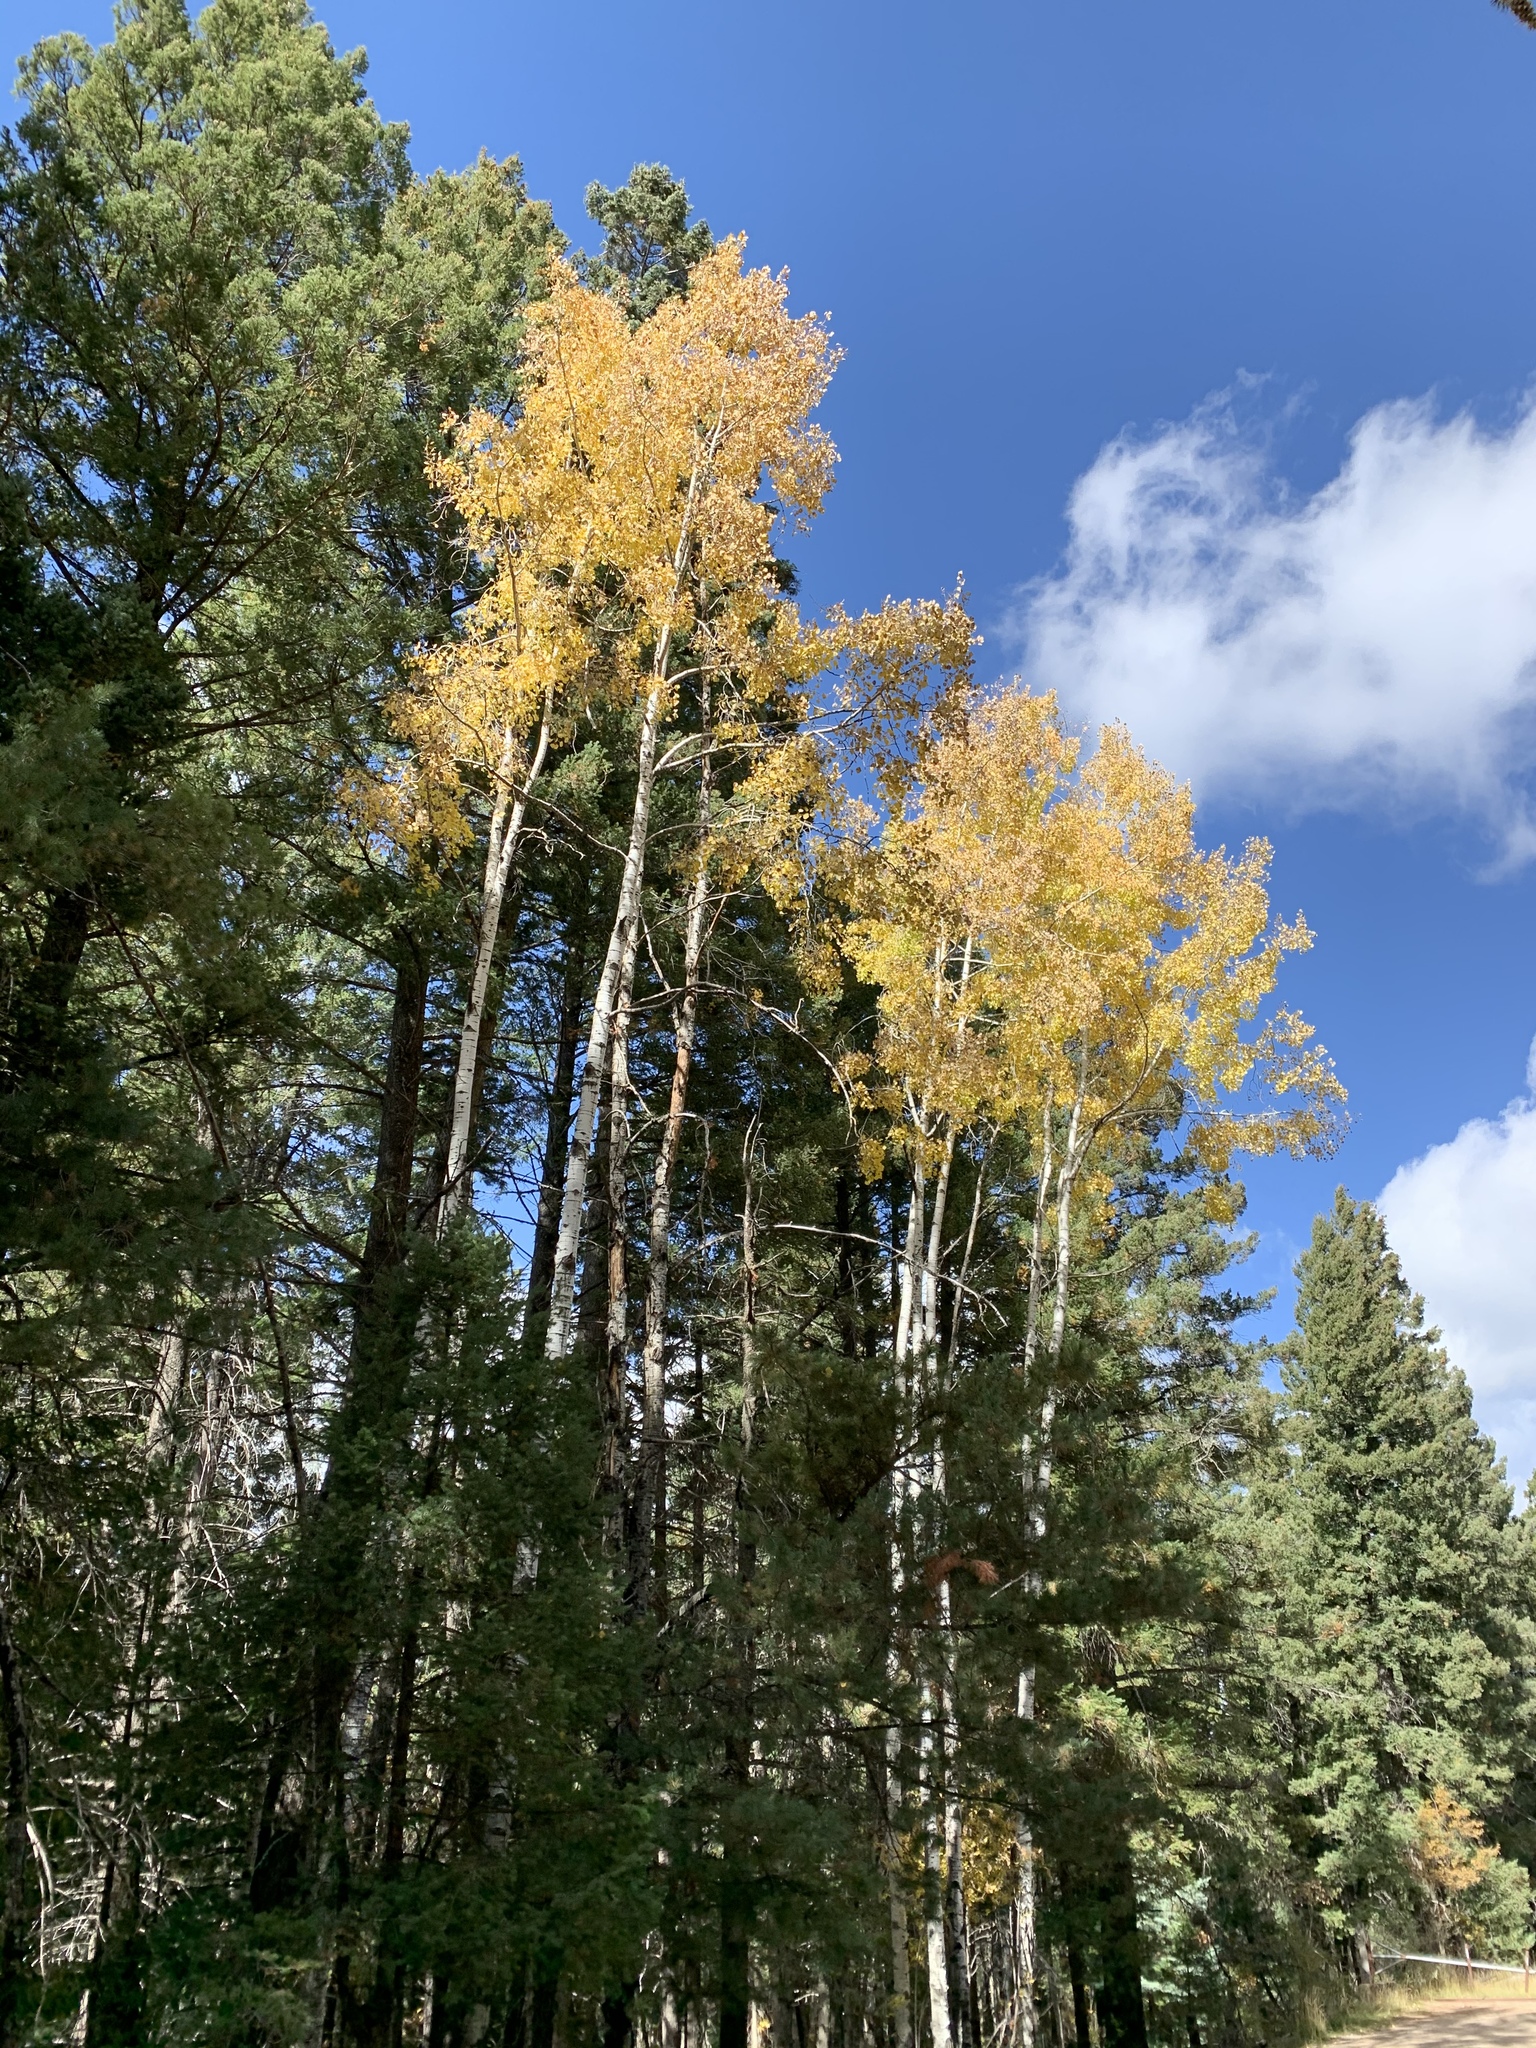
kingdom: Plantae
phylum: Tracheophyta
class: Magnoliopsida
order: Malpighiales
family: Salicaceae
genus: Populus
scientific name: Populus tremuloides
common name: Quaking aspen
